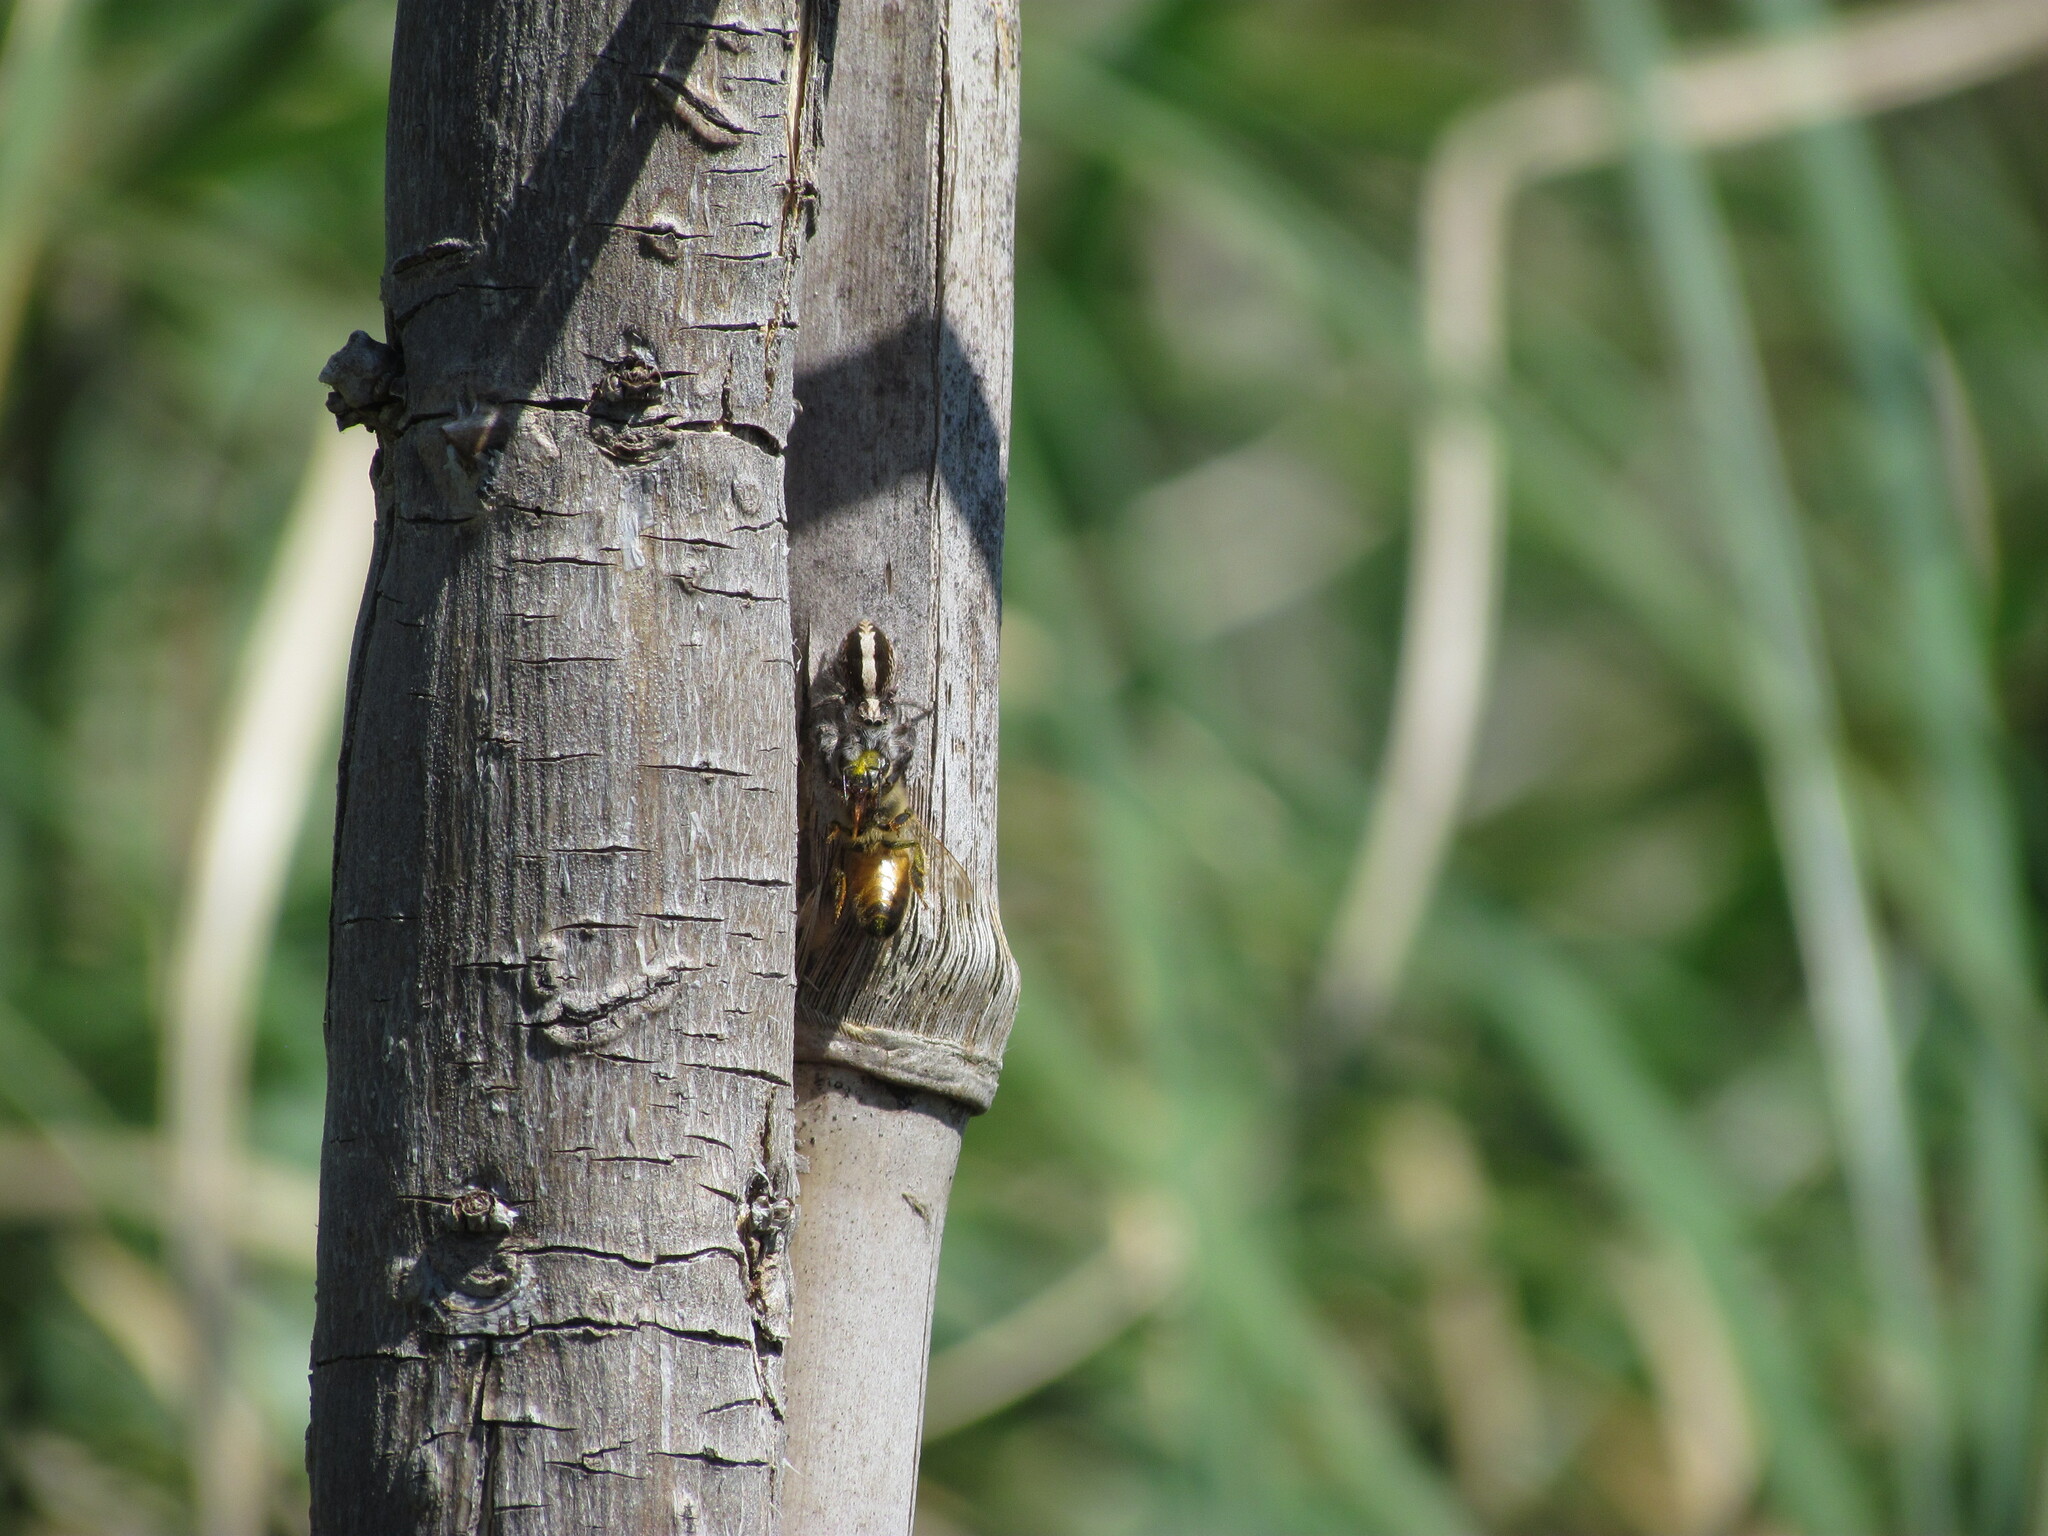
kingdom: Animalia
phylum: Arthropoda
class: Arachnida
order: Araneae
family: Salticidae
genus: Megafreya
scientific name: Megafreya sutrix
